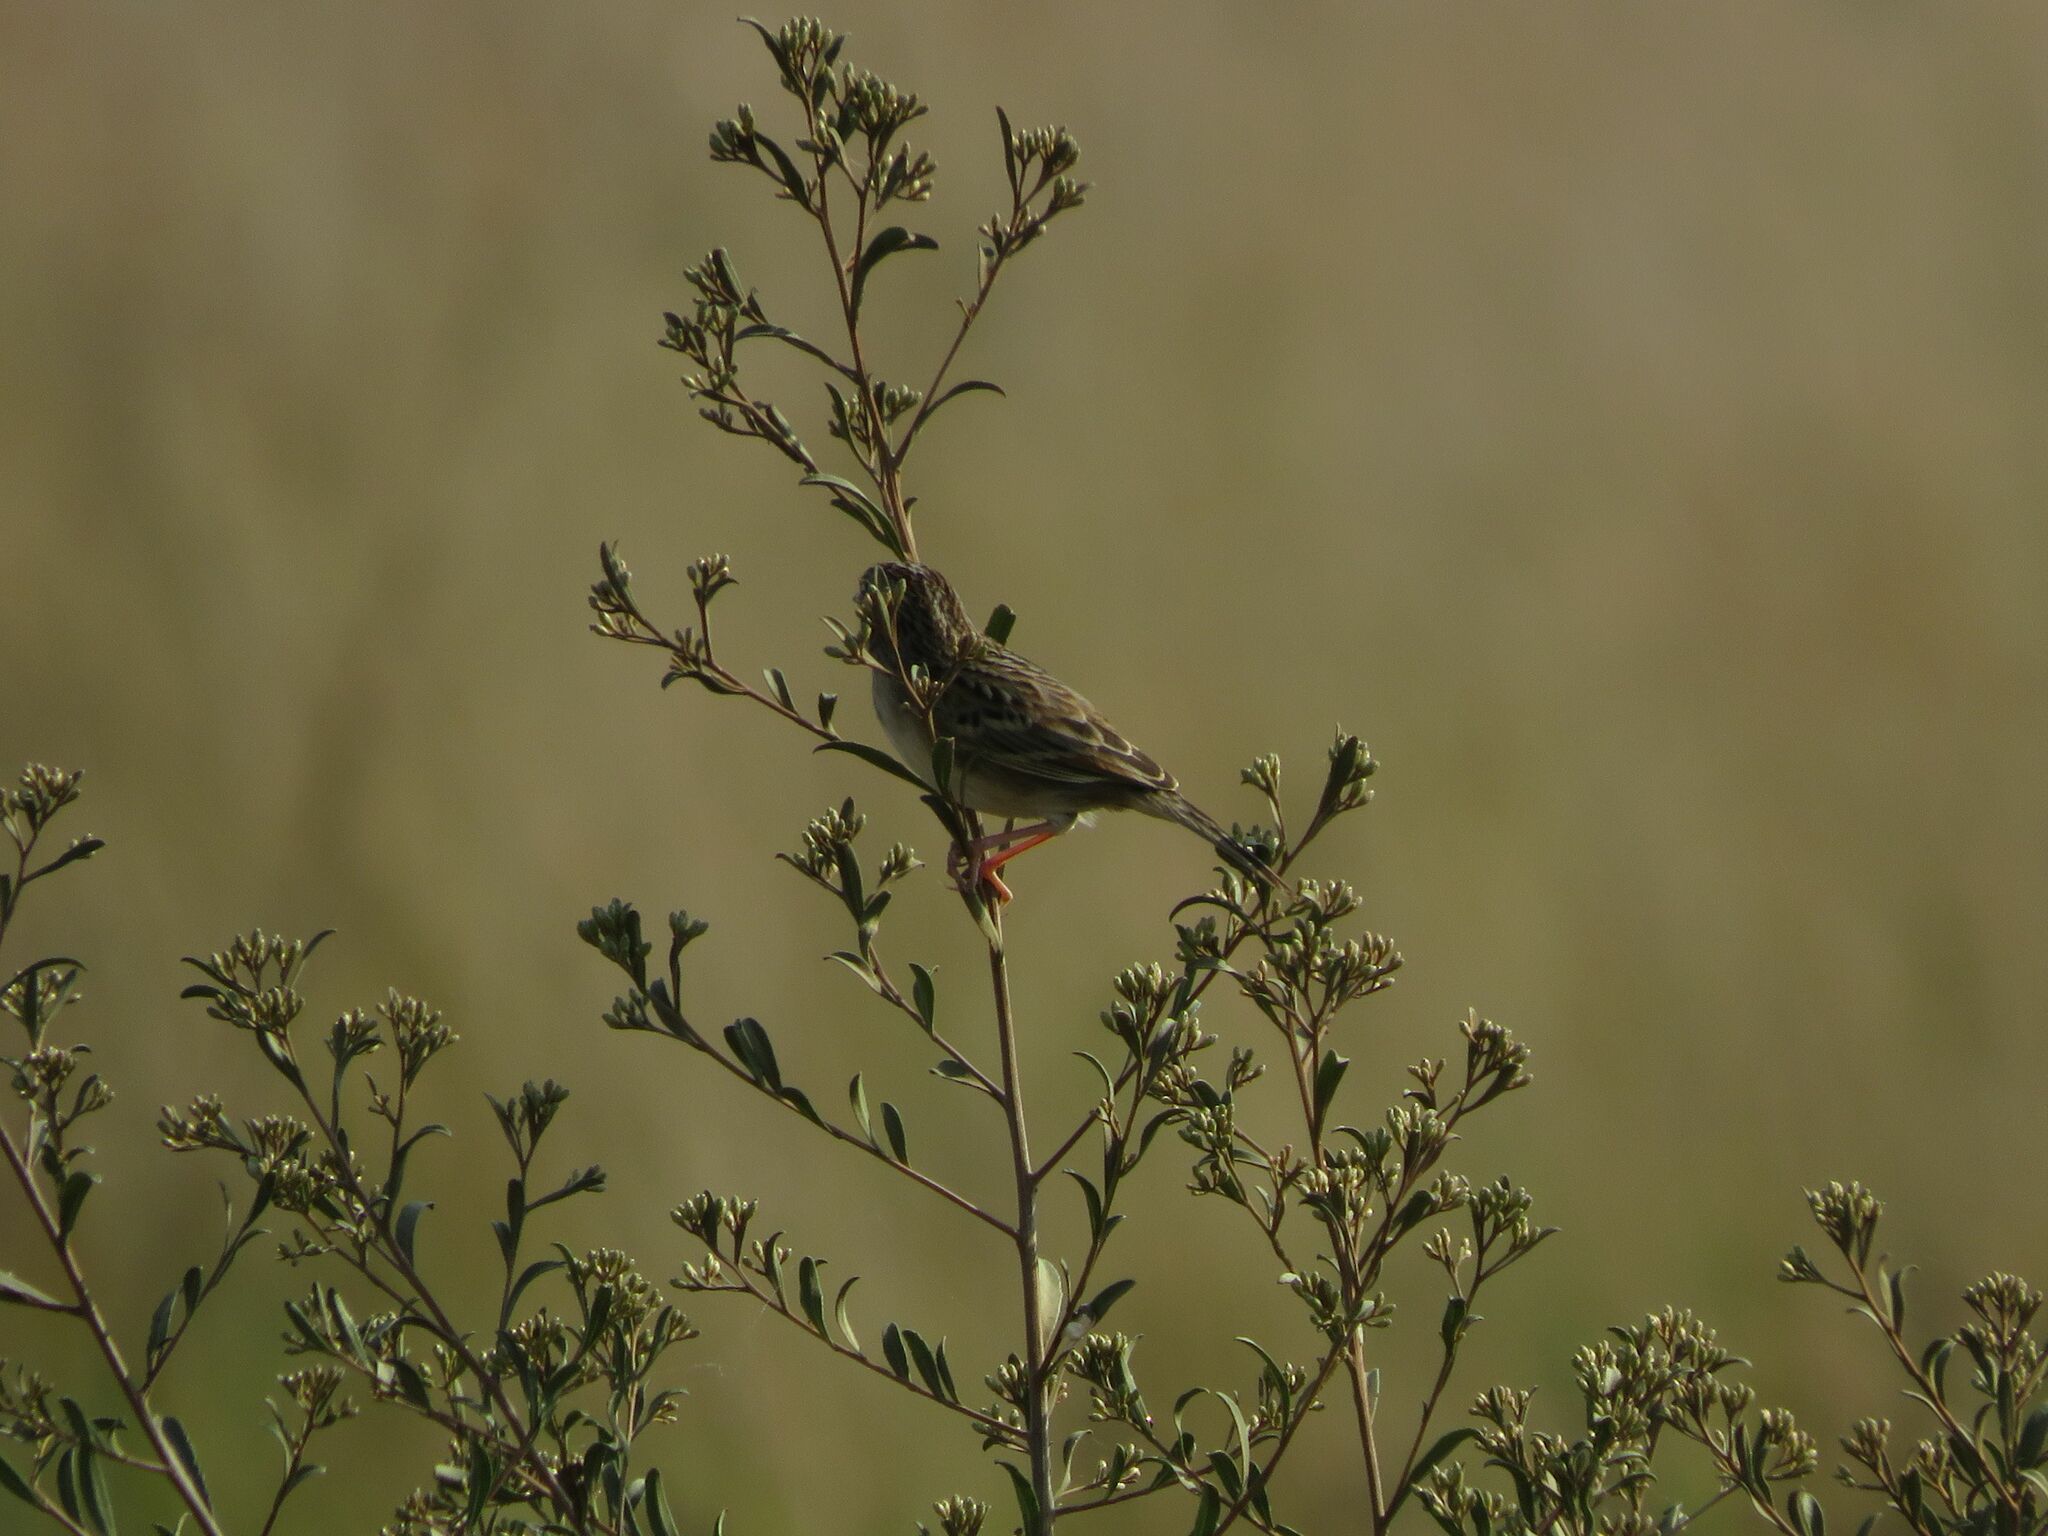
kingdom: Animalia
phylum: Chordata
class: Aves
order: Passeriformes
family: Passerellidae
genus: Ammodramus
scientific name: Ammodramus humeralis
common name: Grassland sparrow
